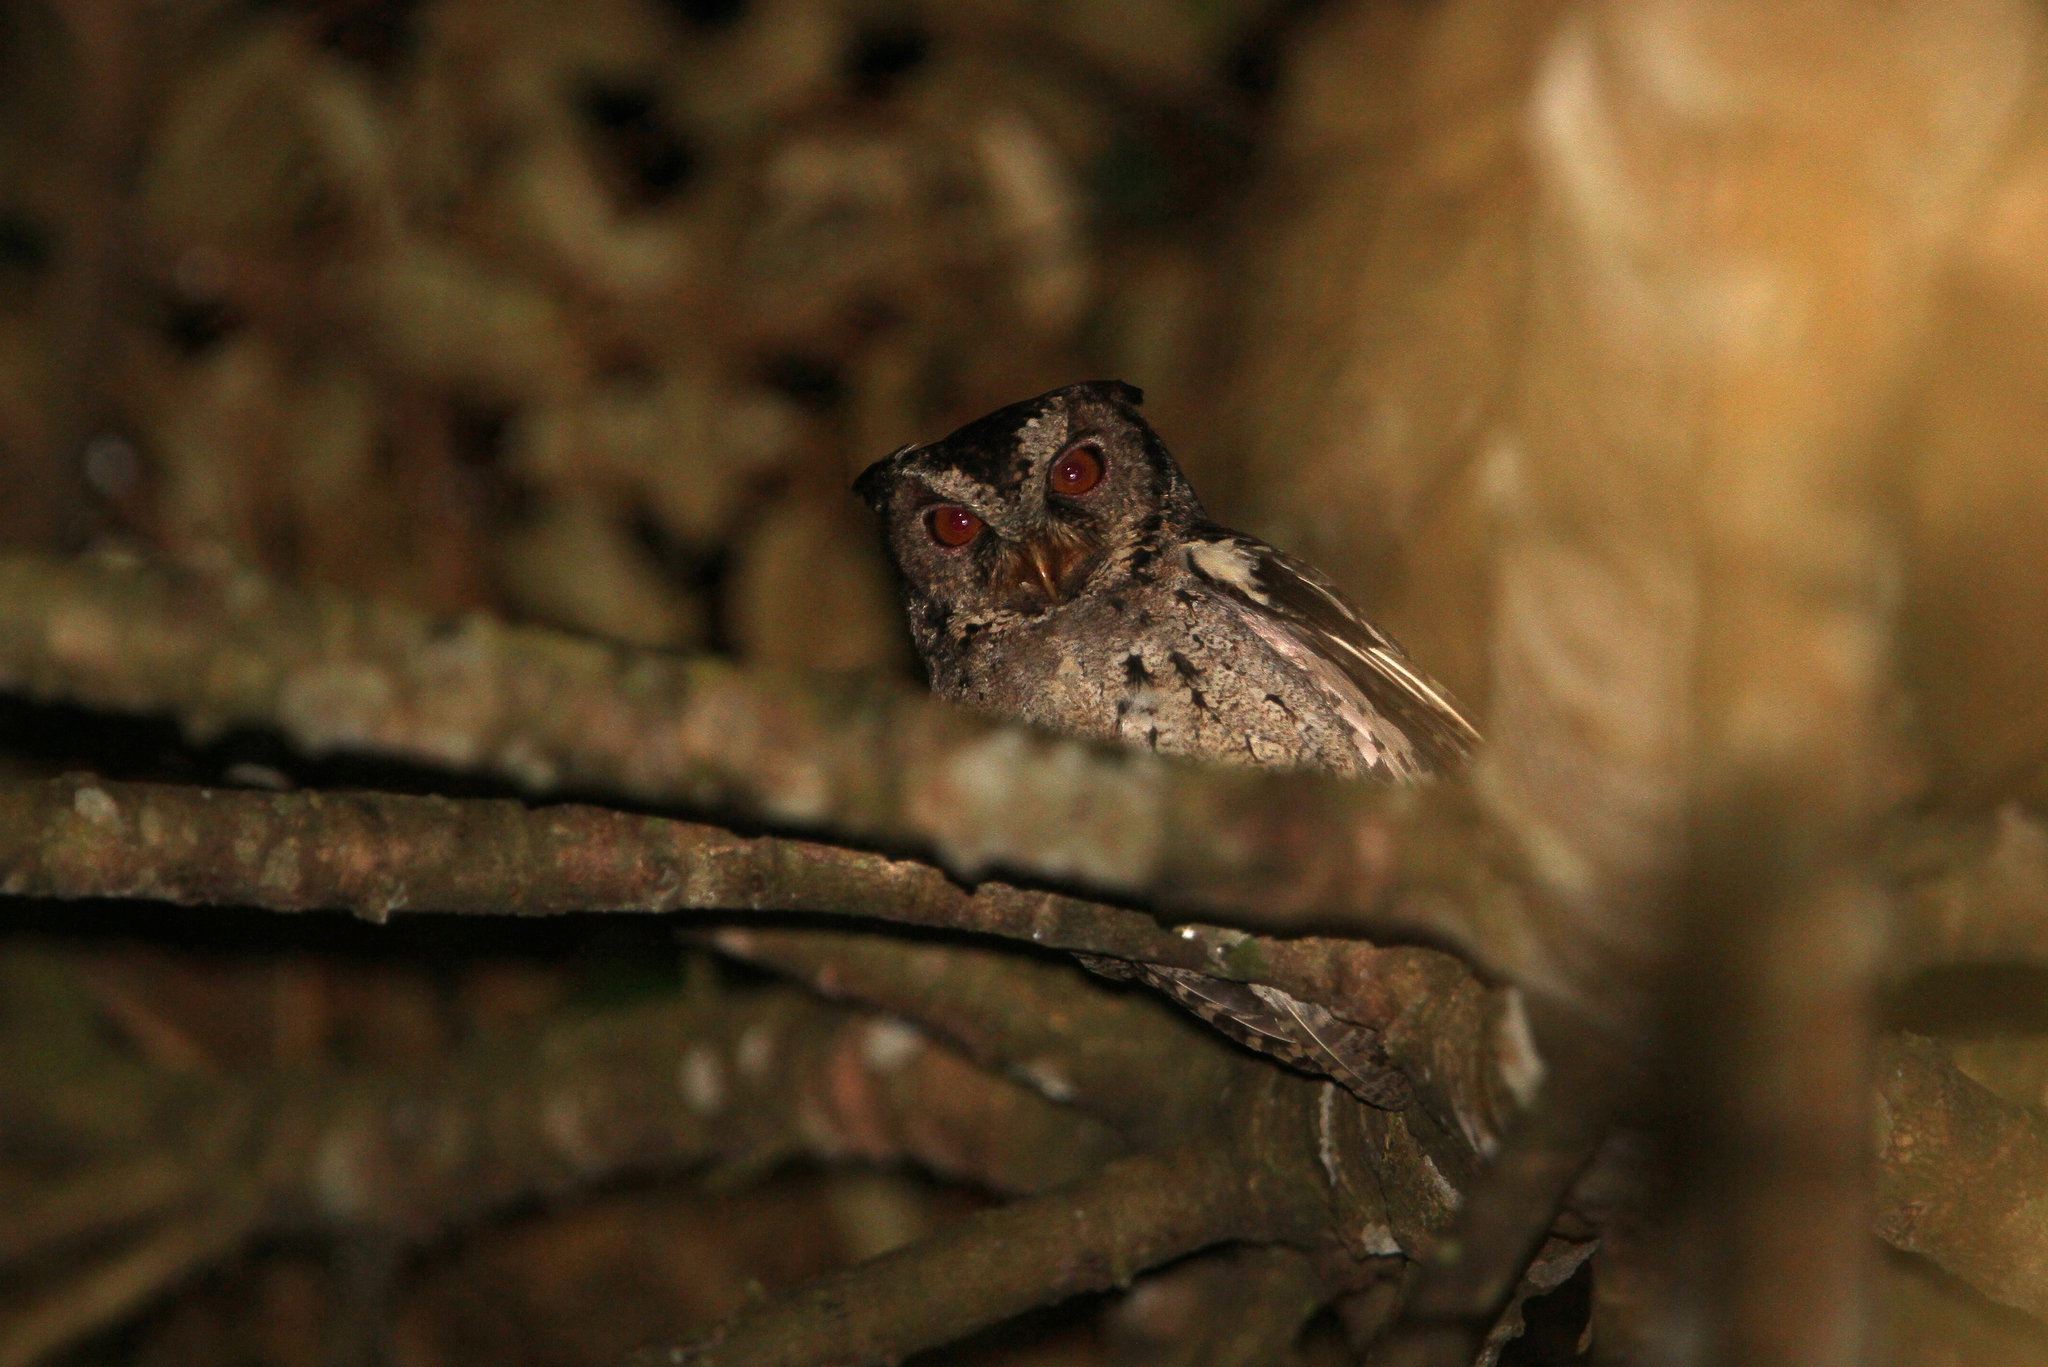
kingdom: Animalia
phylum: Chordata
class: Aves
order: Strigiformes
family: Strigidae
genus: Otus
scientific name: Otus lempiji
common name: Sunda scops-owl
